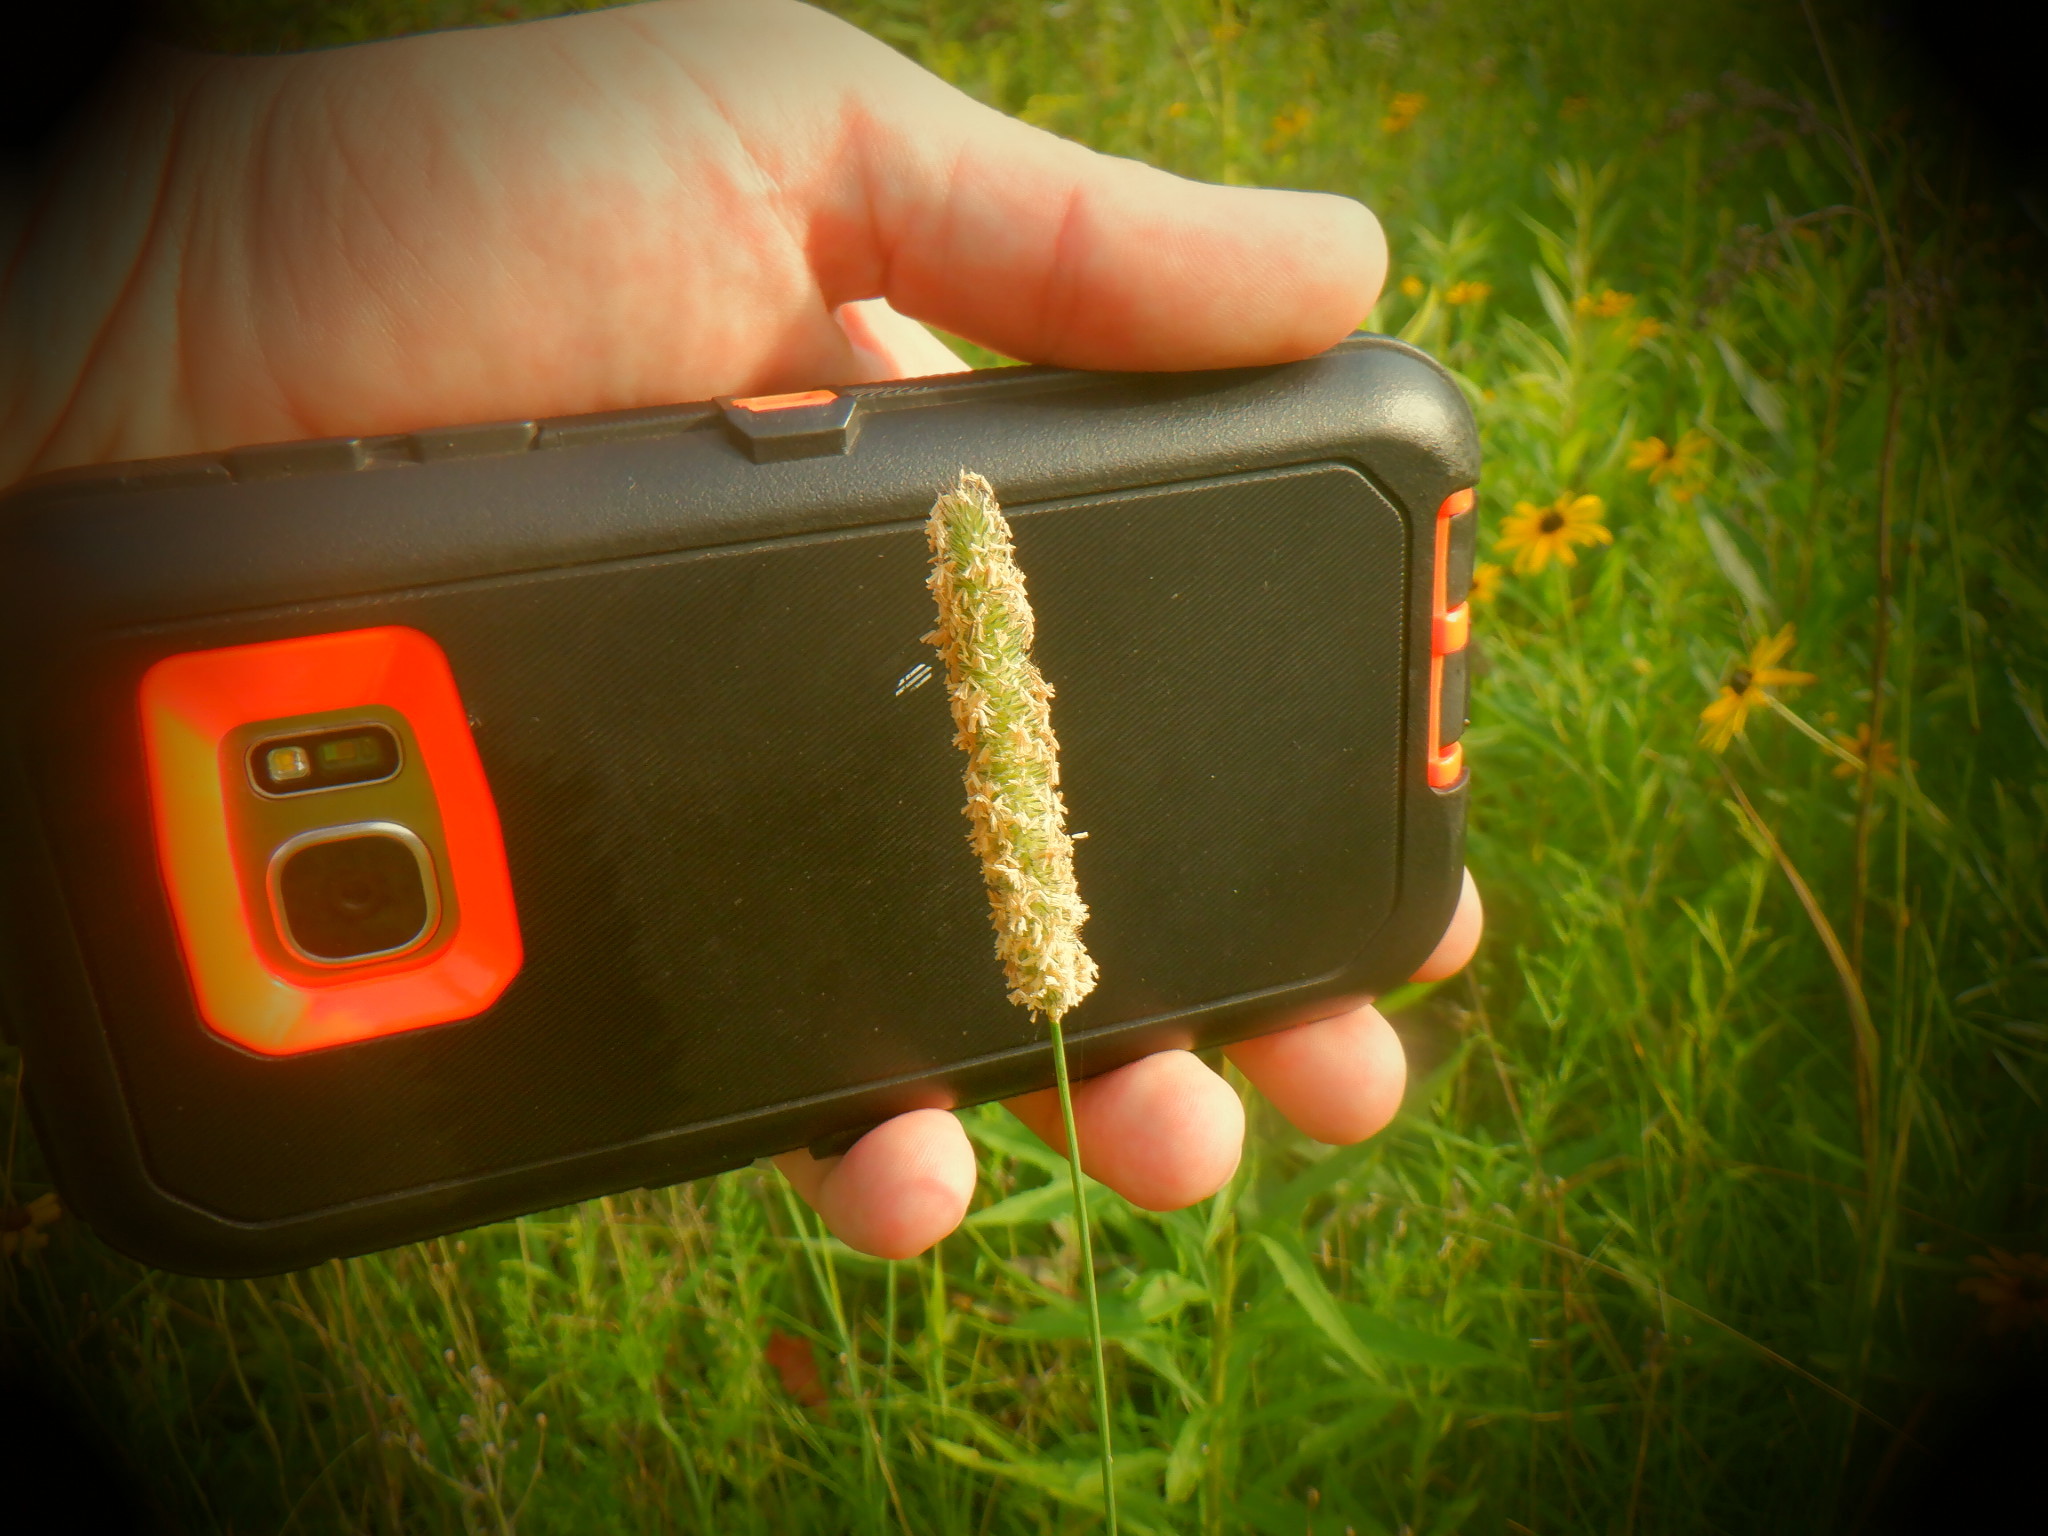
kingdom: Plantae
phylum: Tracheophyta
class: Liliopsida
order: Poales
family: Poaceae
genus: Alopecurus
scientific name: Alopecurus pratensis
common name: Meadow foxtail
